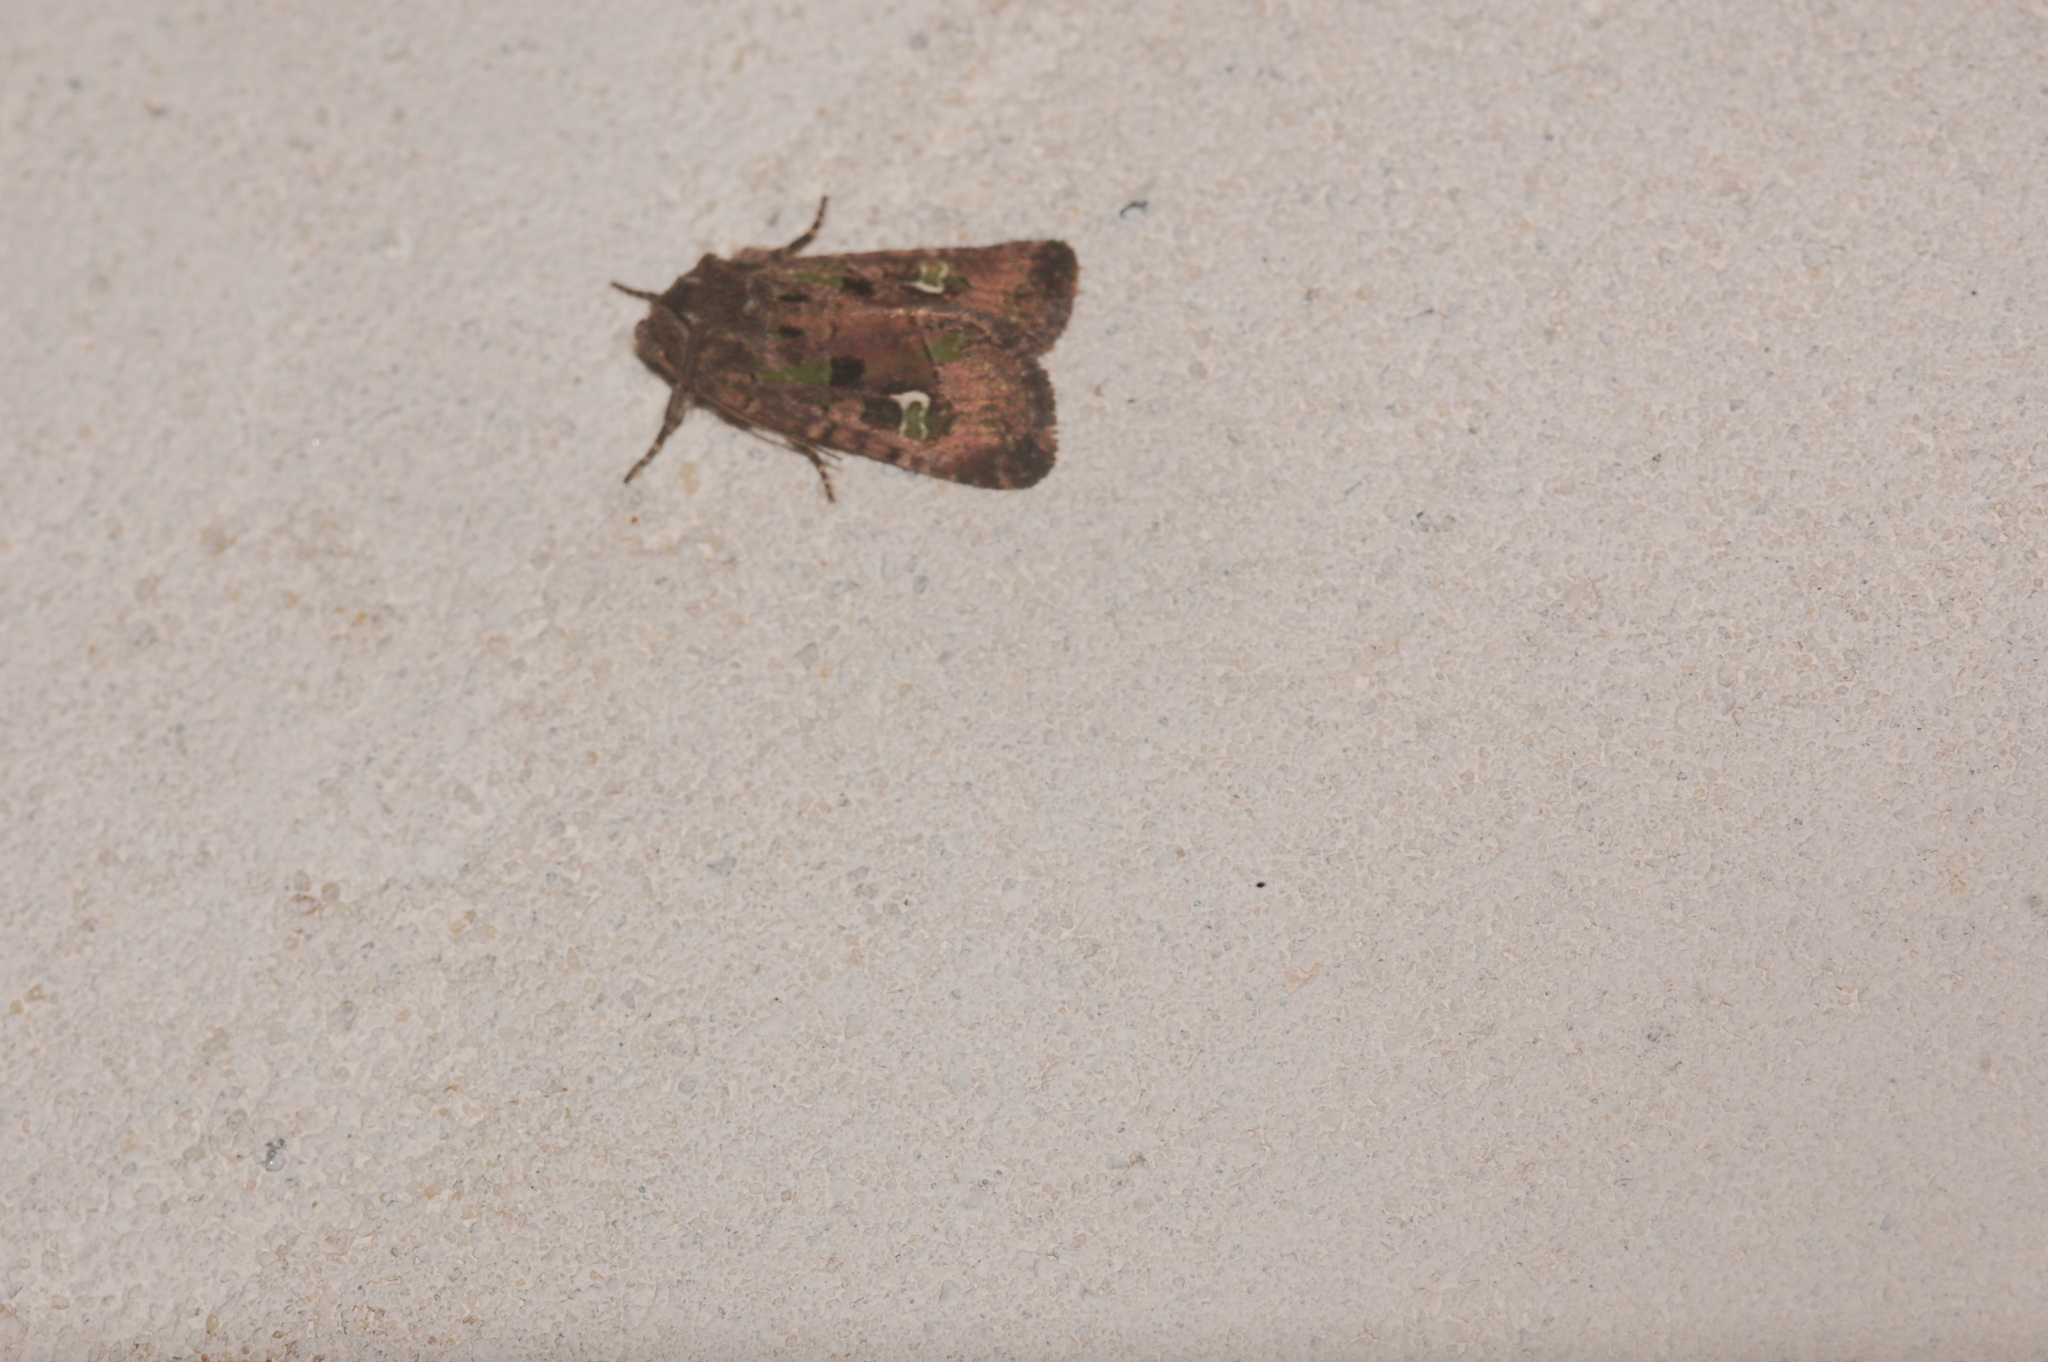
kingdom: Animalia
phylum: Arthropoda
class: Insecta
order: Lepidoptera
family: Noctuidae
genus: Lacinipolia
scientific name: Lacinipolia renigera
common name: Kidney-spotted minor
